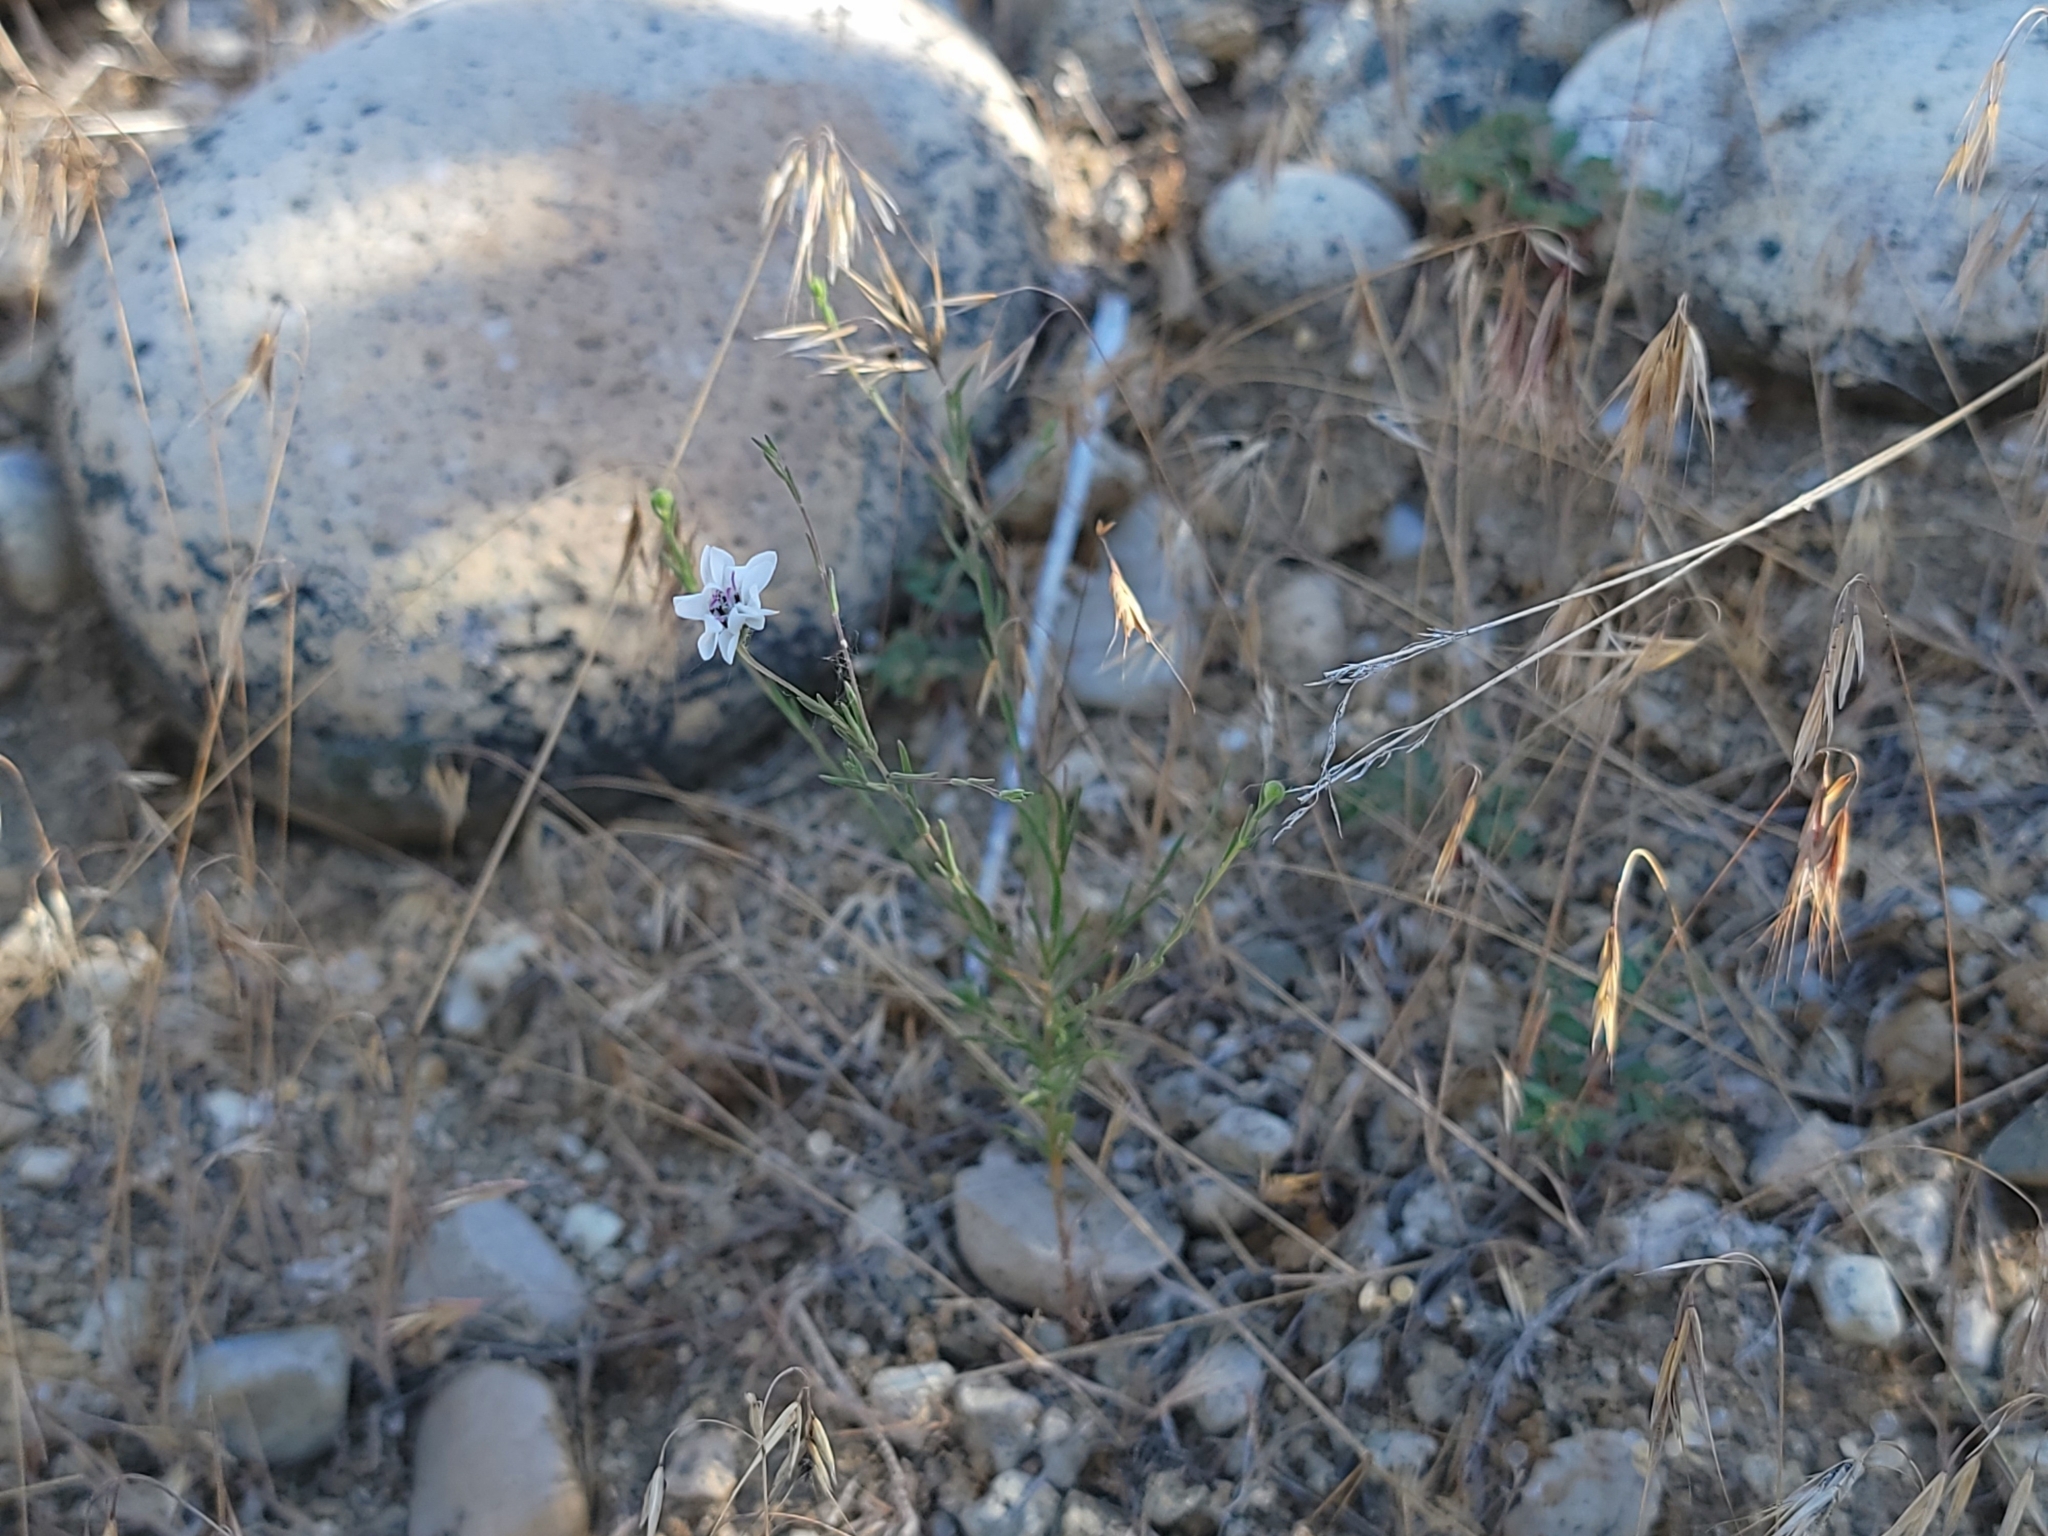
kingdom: Plantae
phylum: Tracheophyta
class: Magnoliopsida
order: Asterales
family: Asteraceae
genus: Blepharipappus
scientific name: Blepharipappus scaber
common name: Rough blepharipappus
